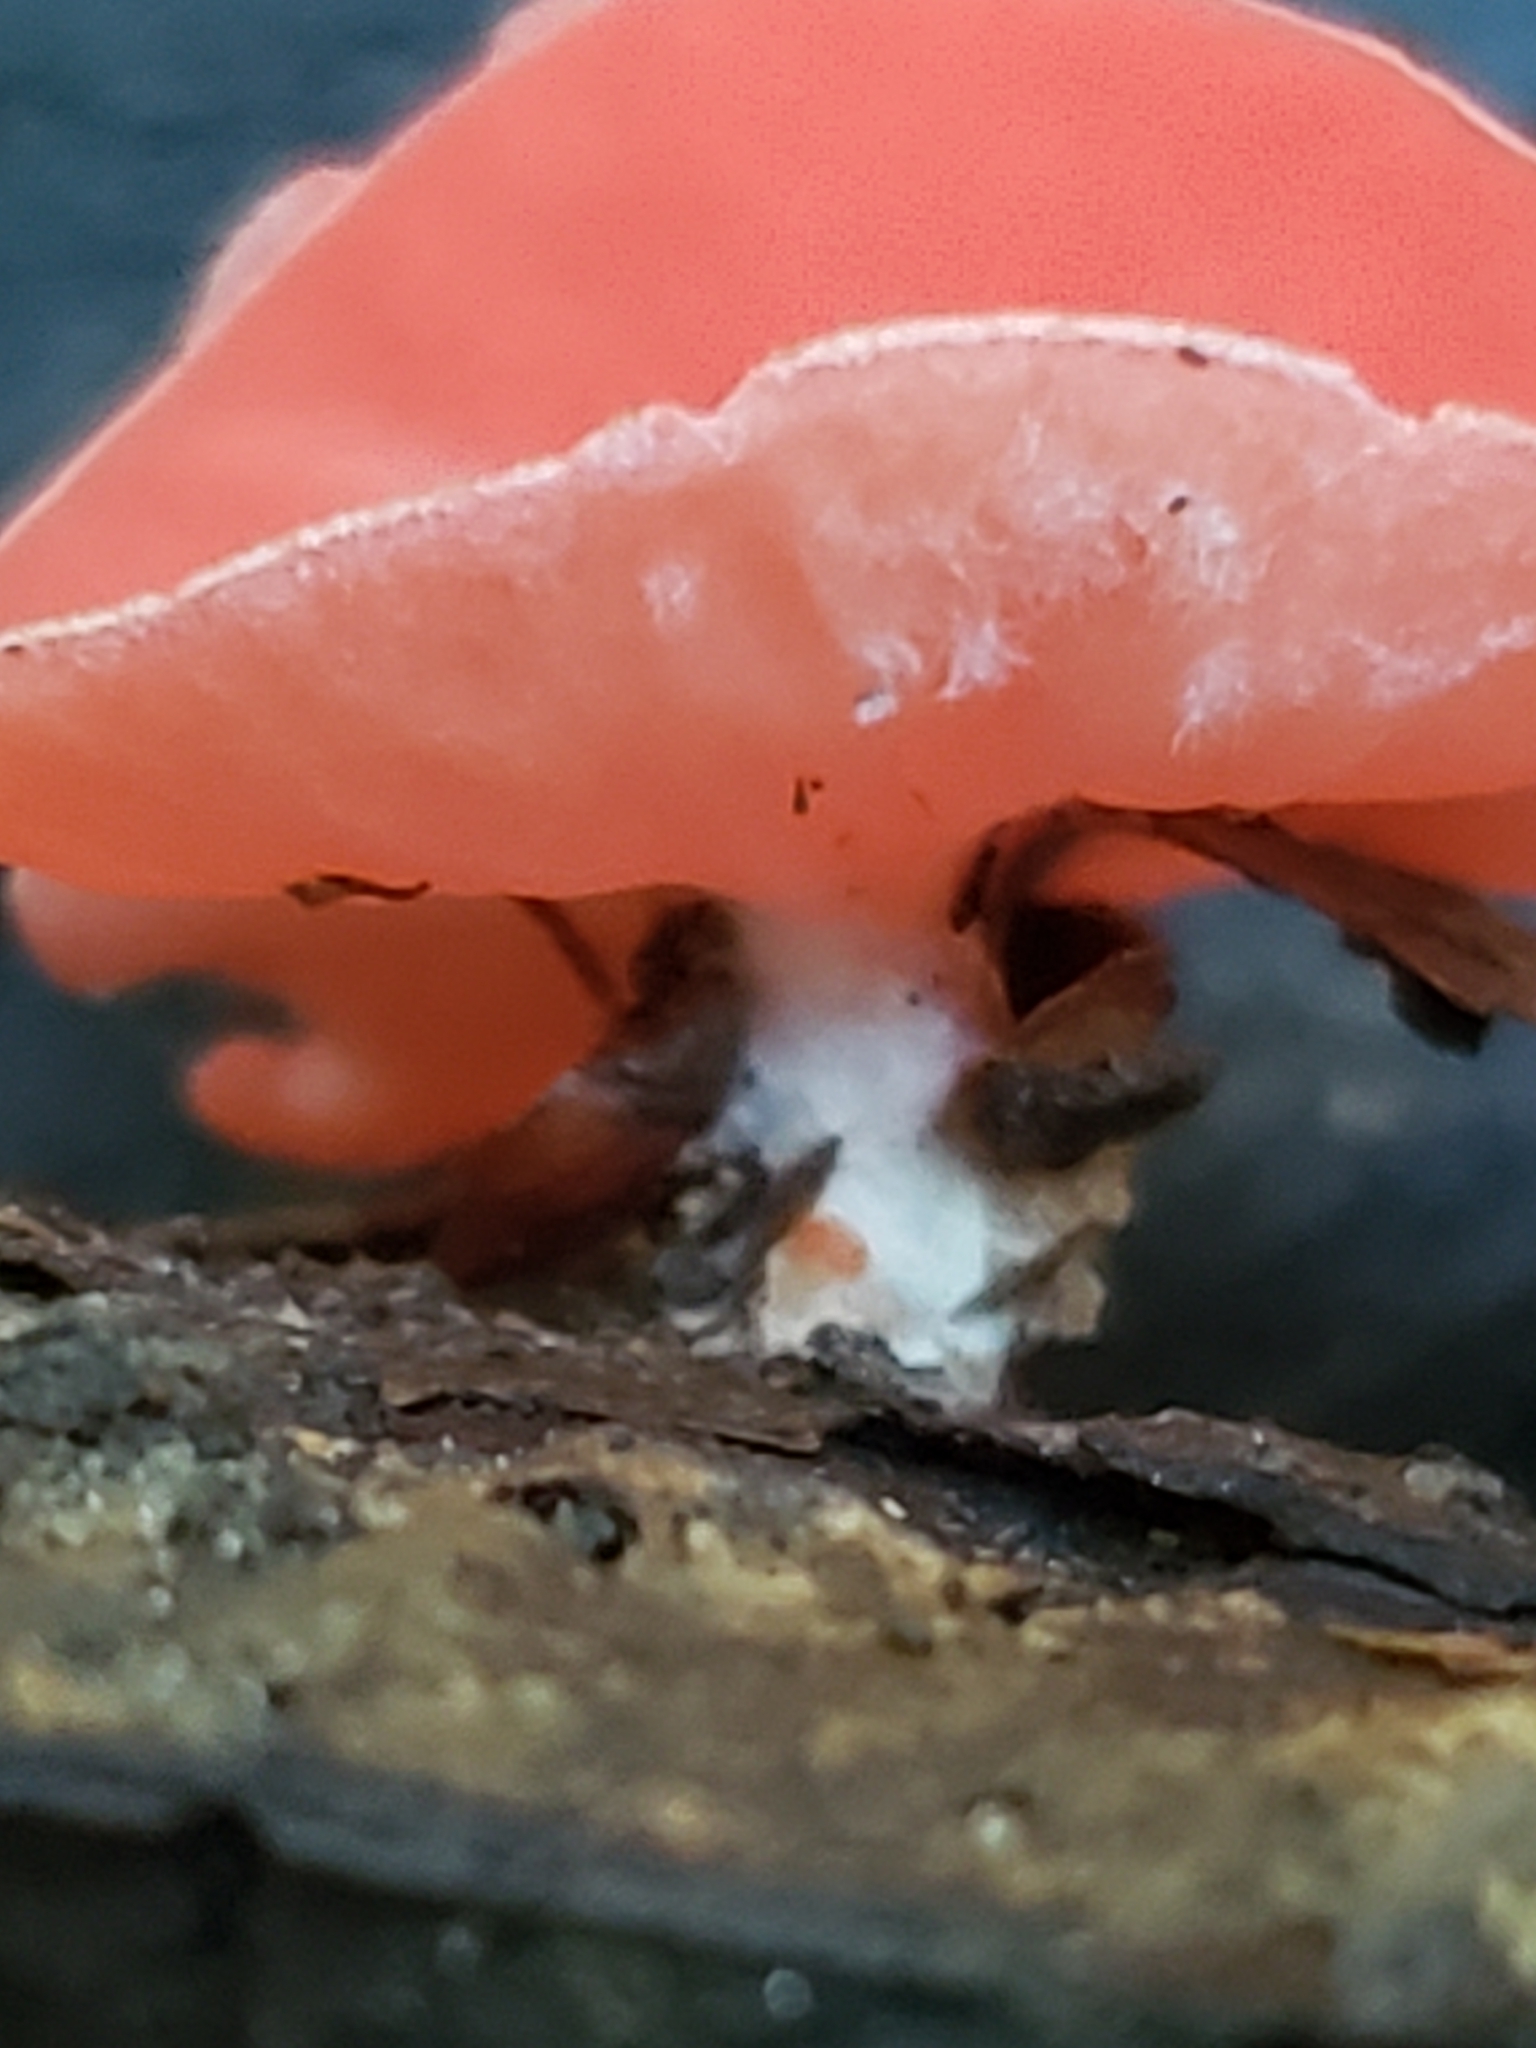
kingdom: Fungi
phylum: Ascomycota
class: Pezizomycetes
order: Pezizales
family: Sarcoscyphaceae
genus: Sarcoscypha
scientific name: Sarcoscypha occidentalis
